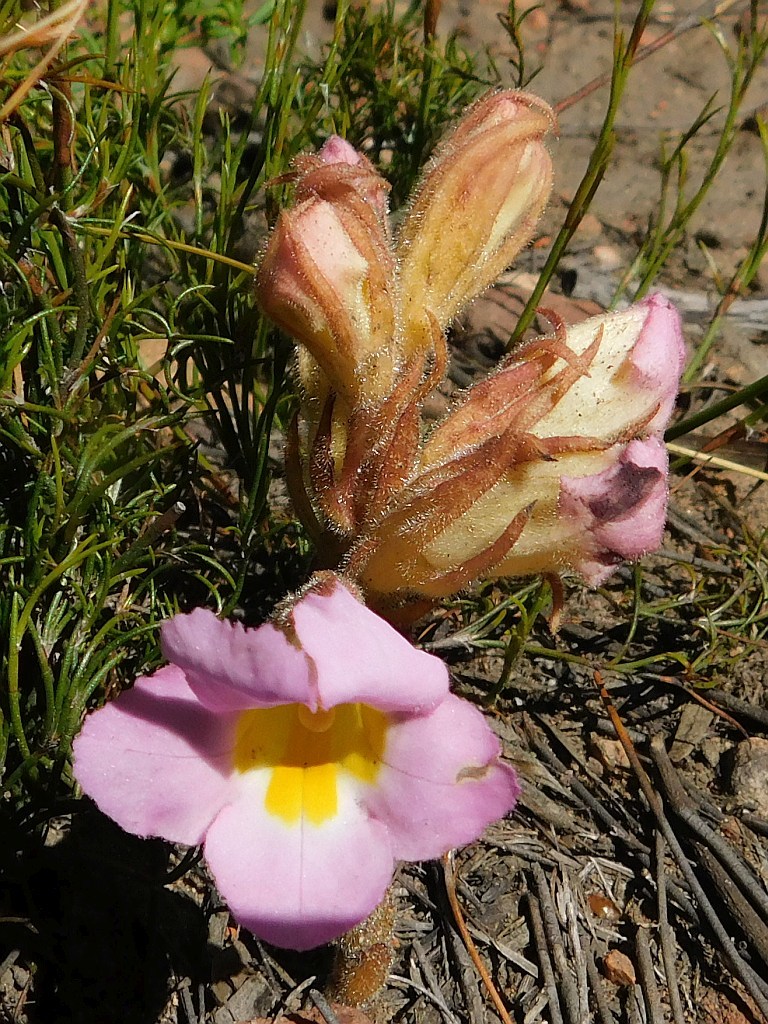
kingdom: Plantae
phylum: Tracheophyta
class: Magnoliopsida
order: Lamiales
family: Orobanchaceae
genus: Harveya
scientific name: Harveya purpurea
